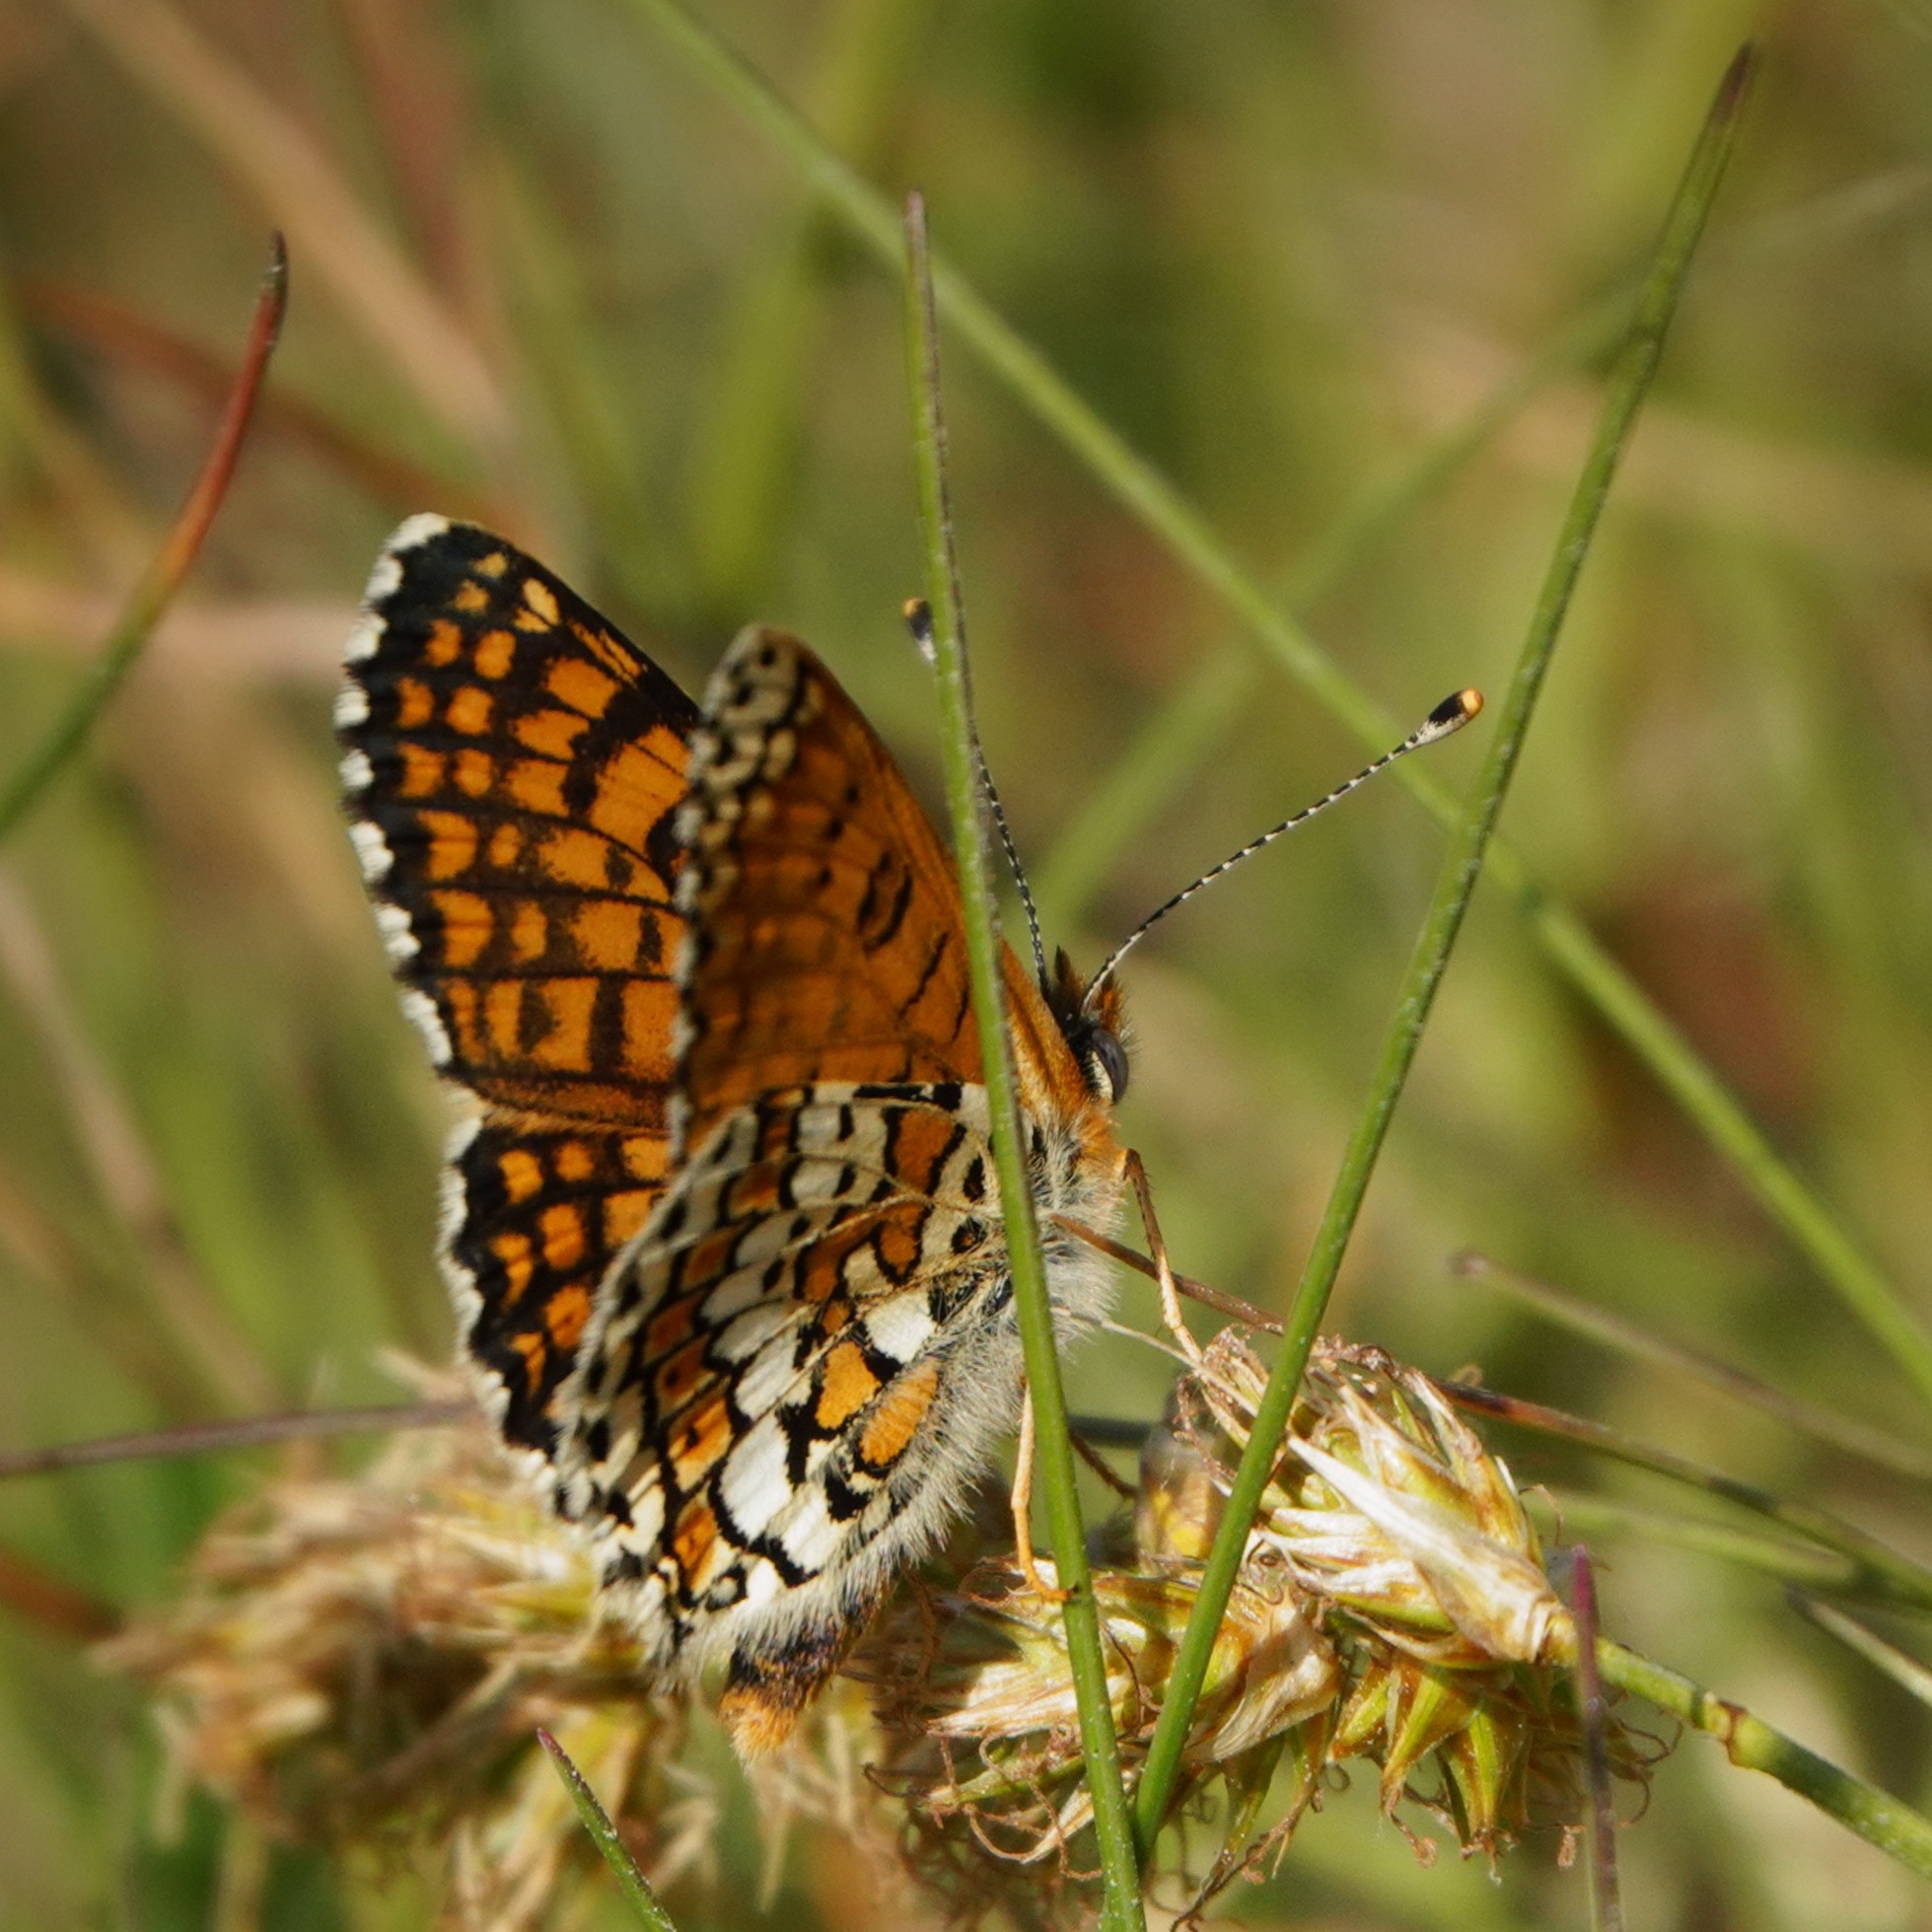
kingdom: Animalia
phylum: Arthropoda
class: Insecta
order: Lepidoptera
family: Nymphalidae
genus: Melitaea
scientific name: Melitaea cinxia
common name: Glanville fritillary
